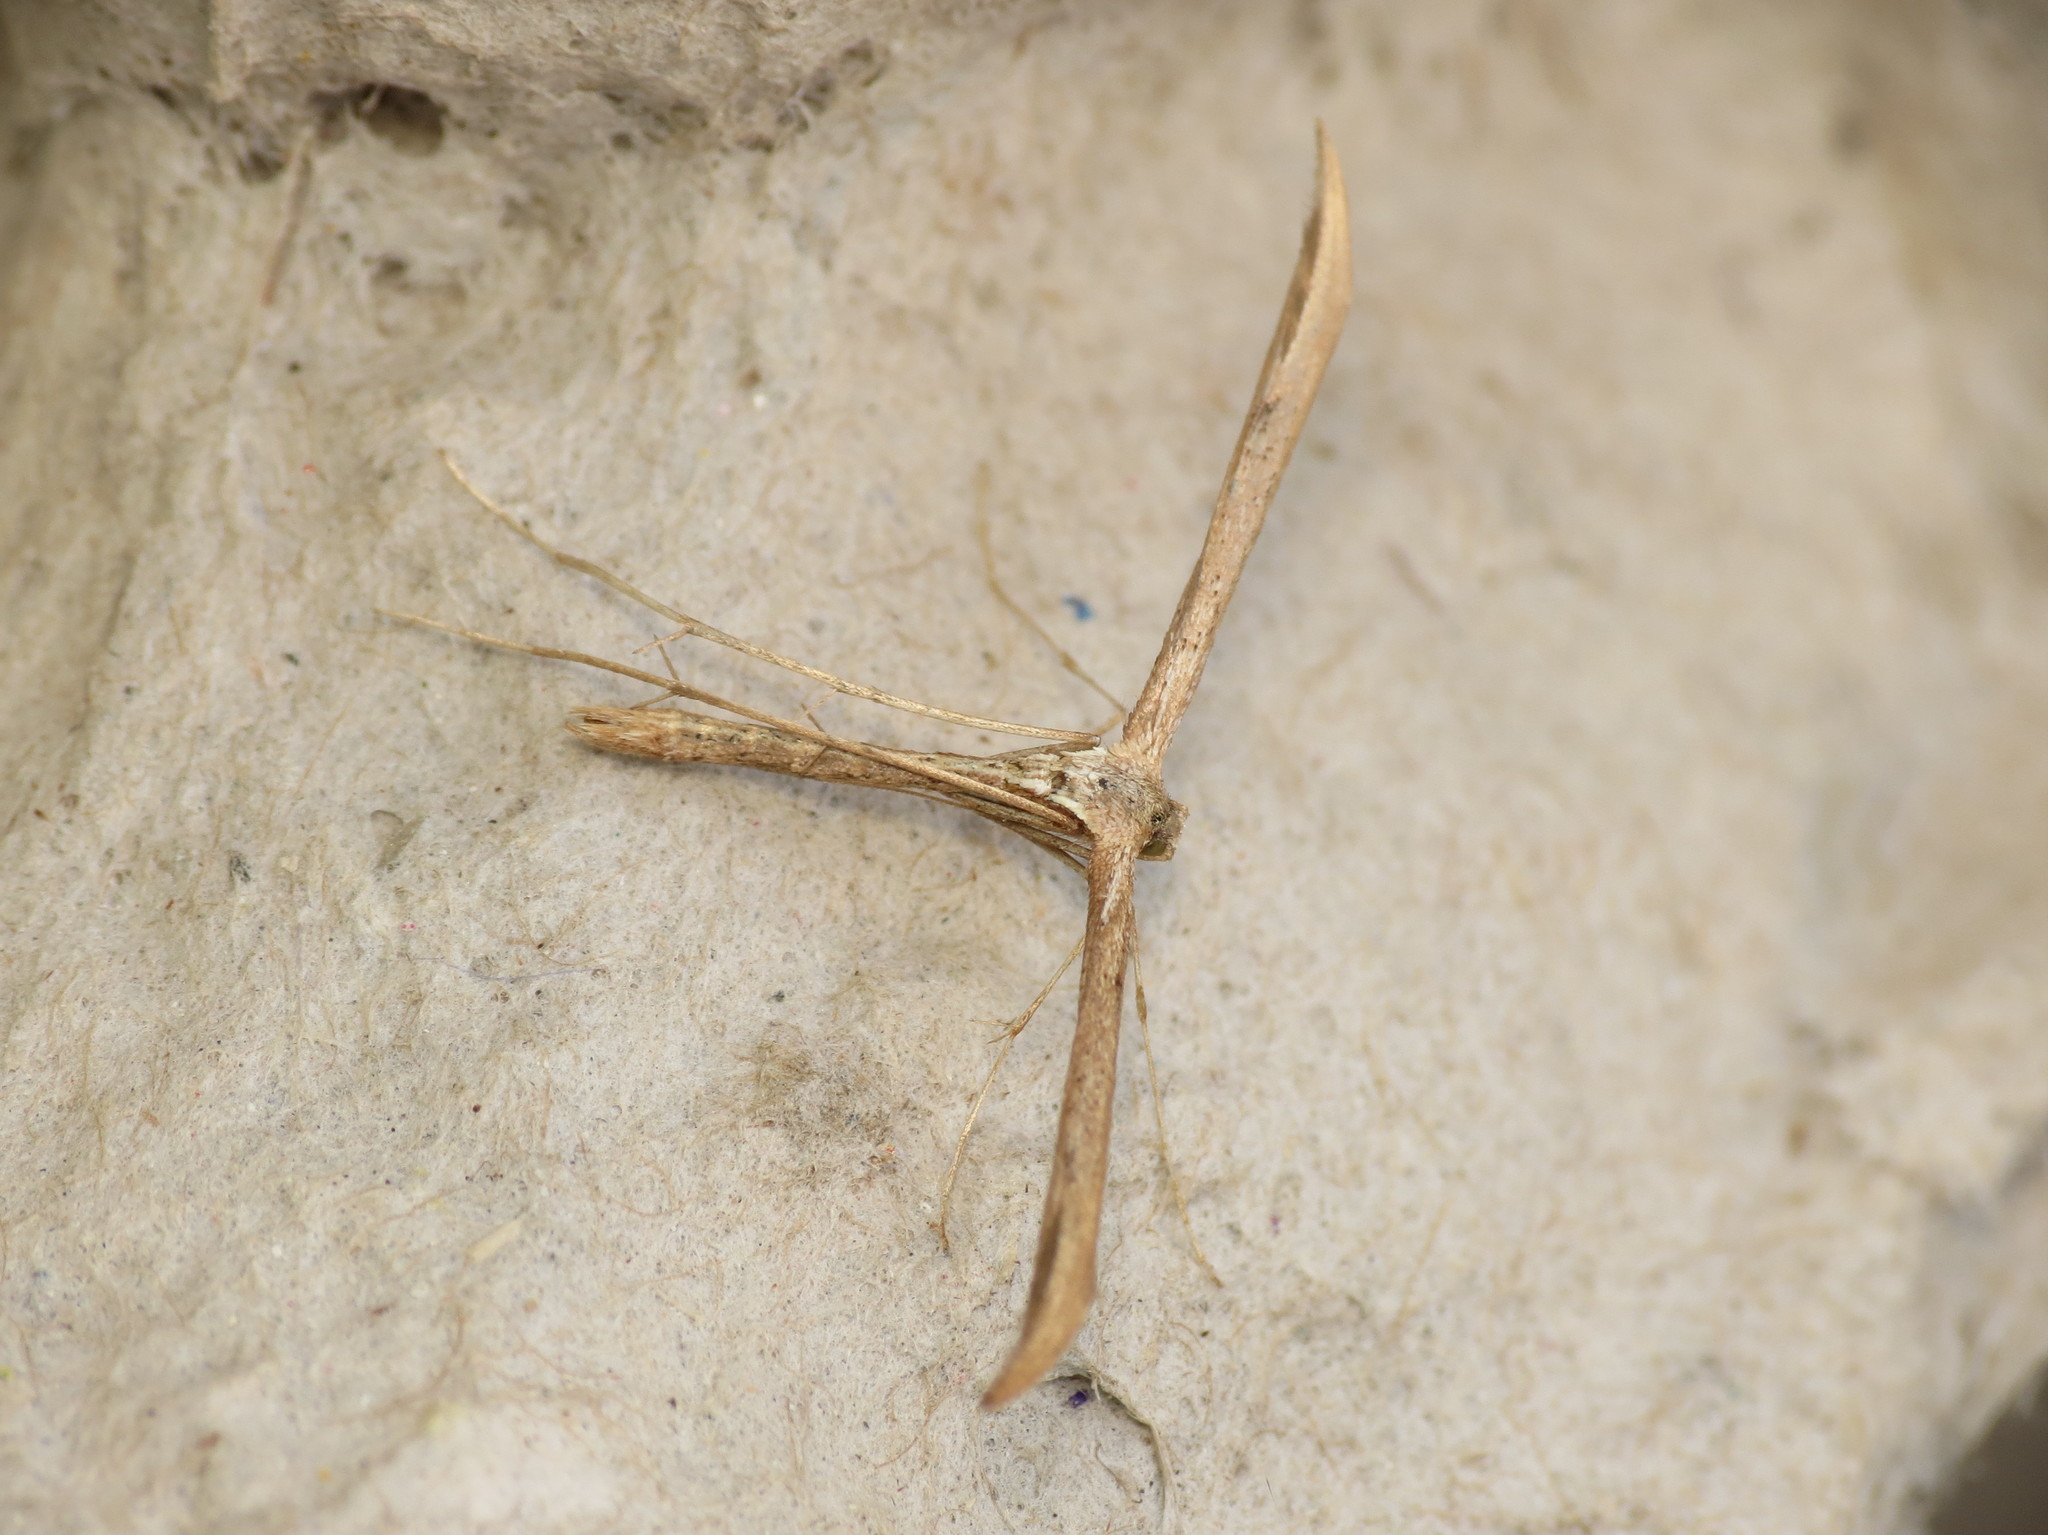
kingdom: Animalia
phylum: Arthropoda
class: Insecta
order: Lepidoptera
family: Pterophoridae
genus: Emmelina
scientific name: Emmelina monodactyla
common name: Common plume
